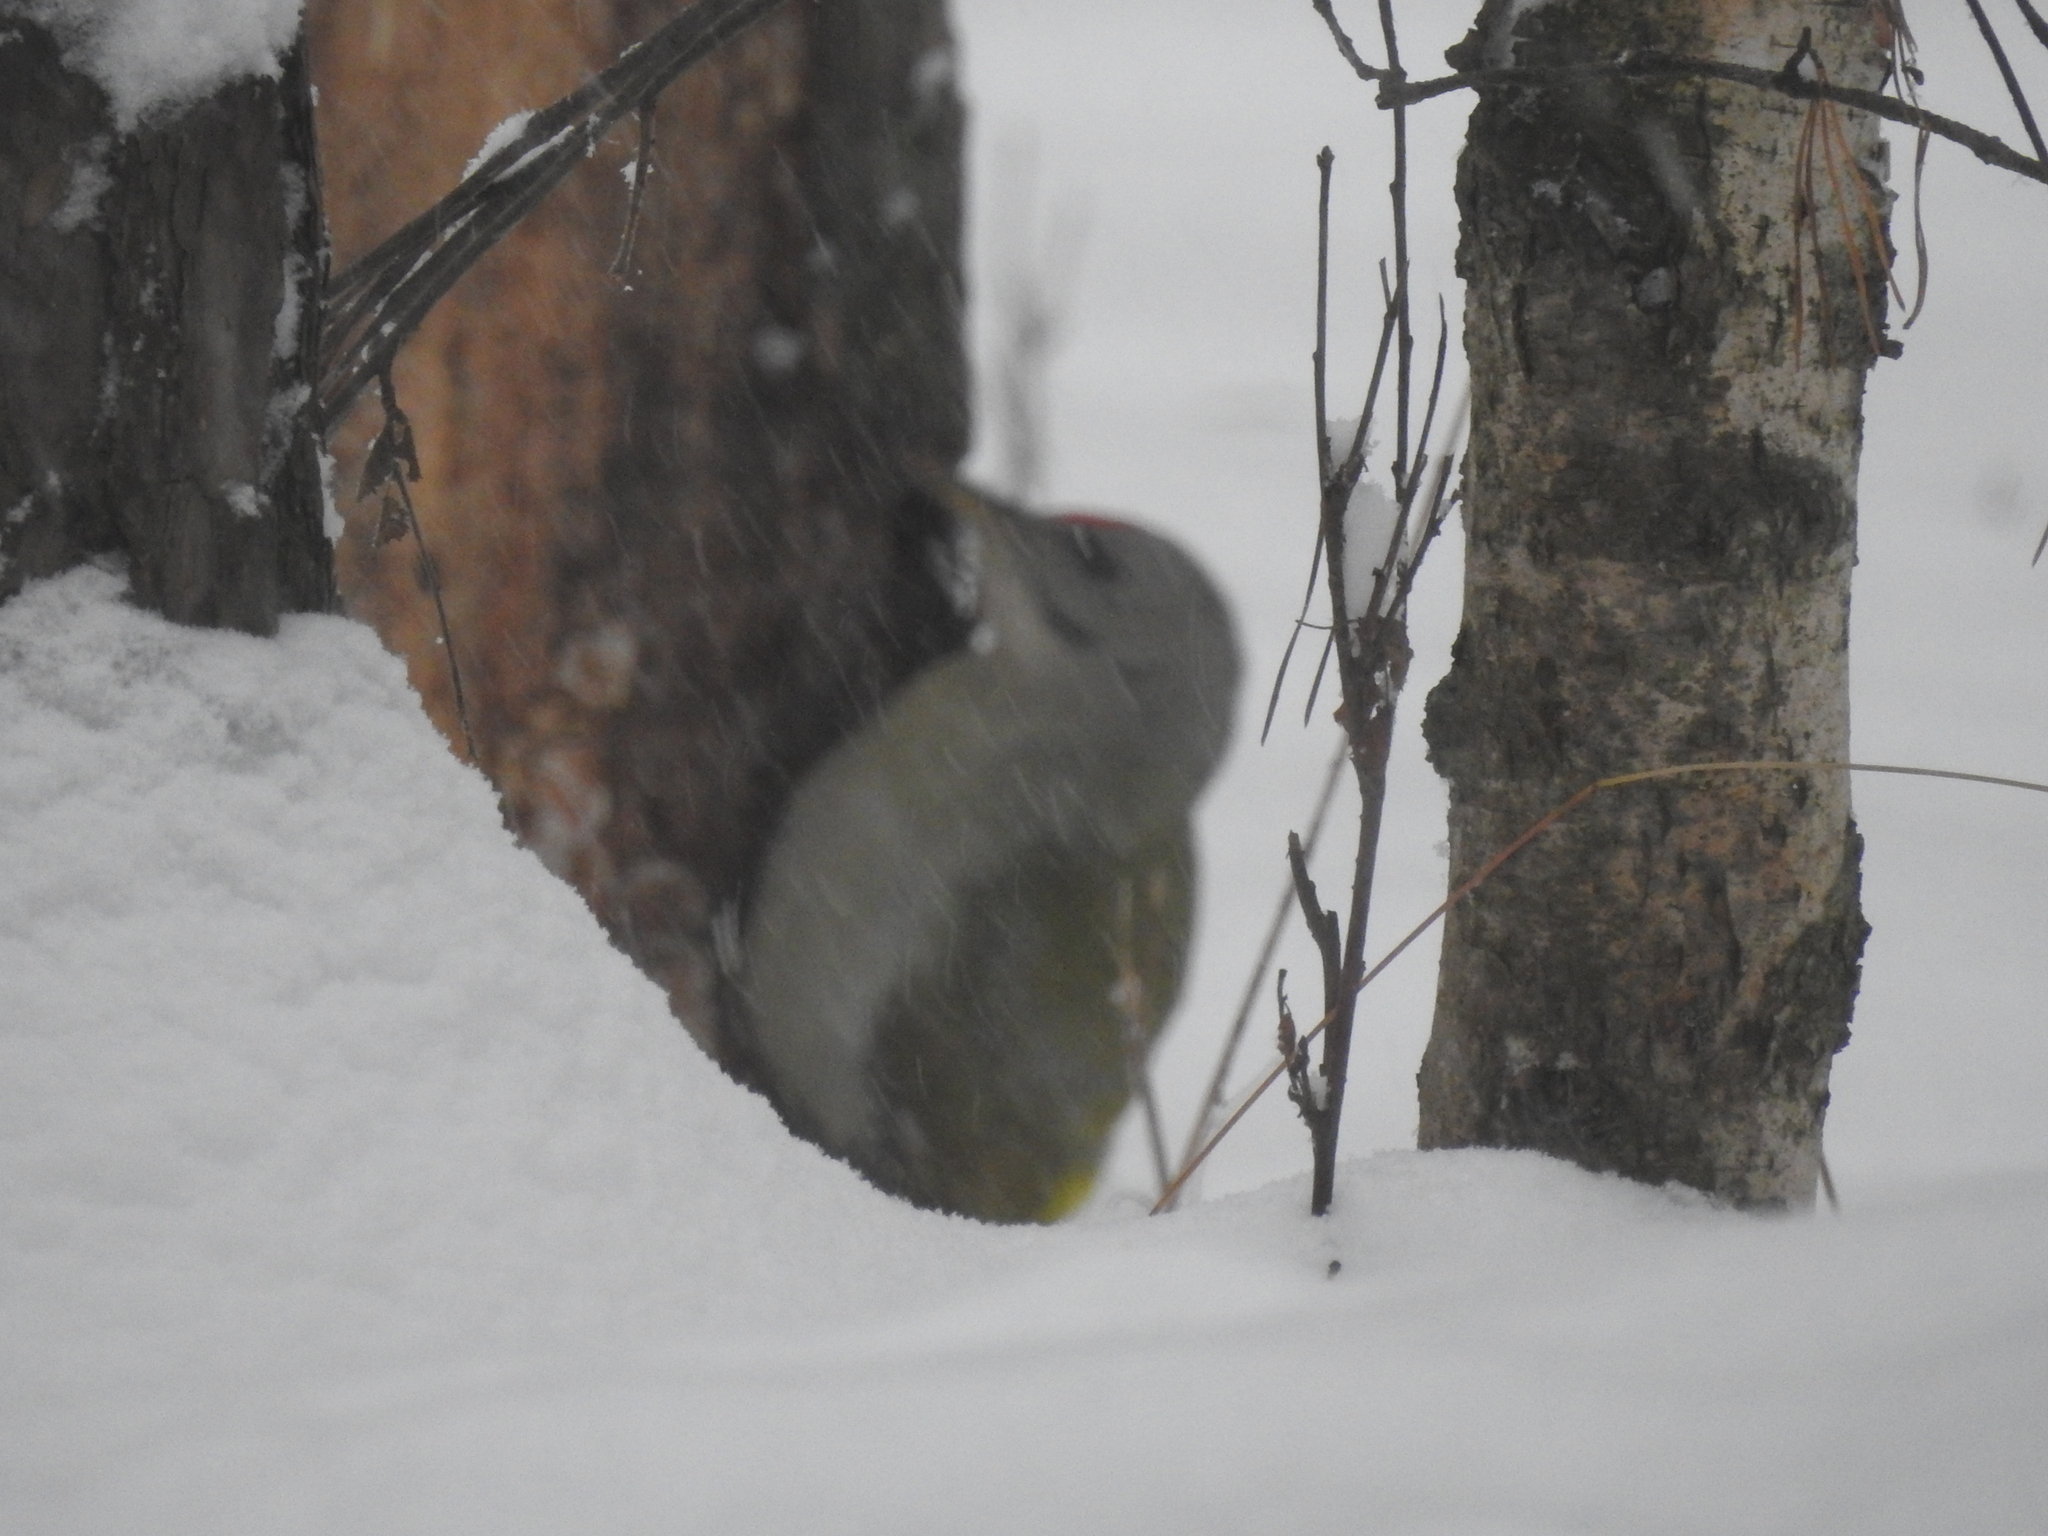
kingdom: Animalia
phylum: Chordata
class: Aves
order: Piciformes
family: Picidae
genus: Picus
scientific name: Picus canus
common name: Grey-headed woodpecker
